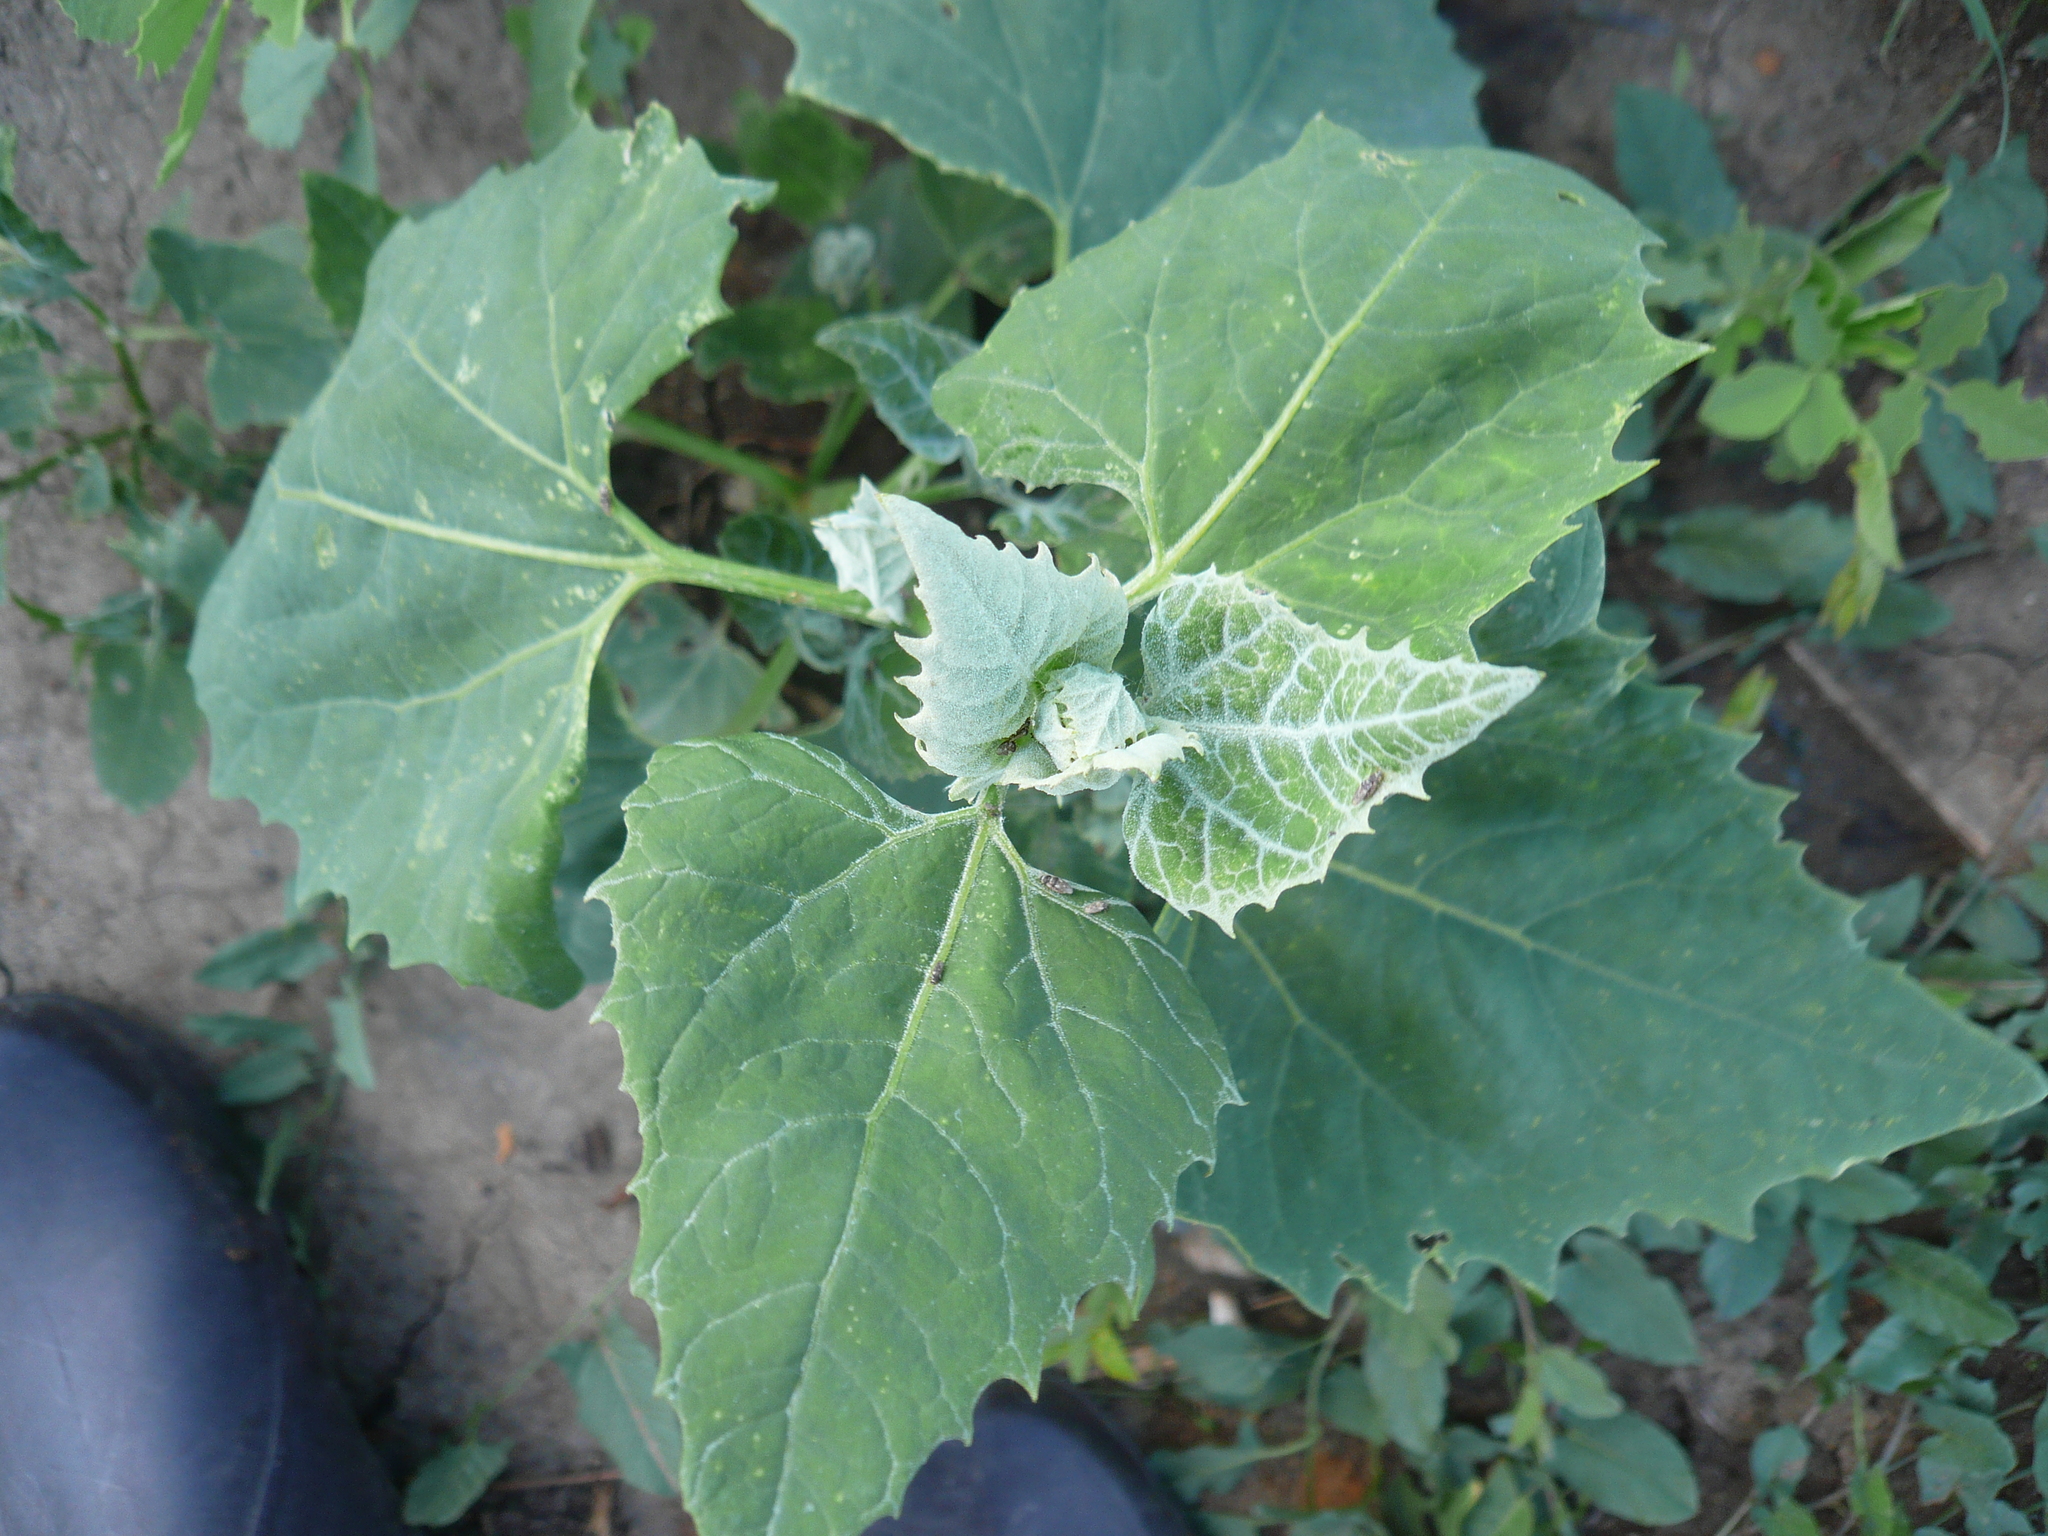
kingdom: Plantae
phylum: Tracheophyta
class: Magnoliopsida
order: Caryophyllales
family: Amaranthaceae
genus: Atriplex
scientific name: Atriplex sagittata
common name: Purple orache
